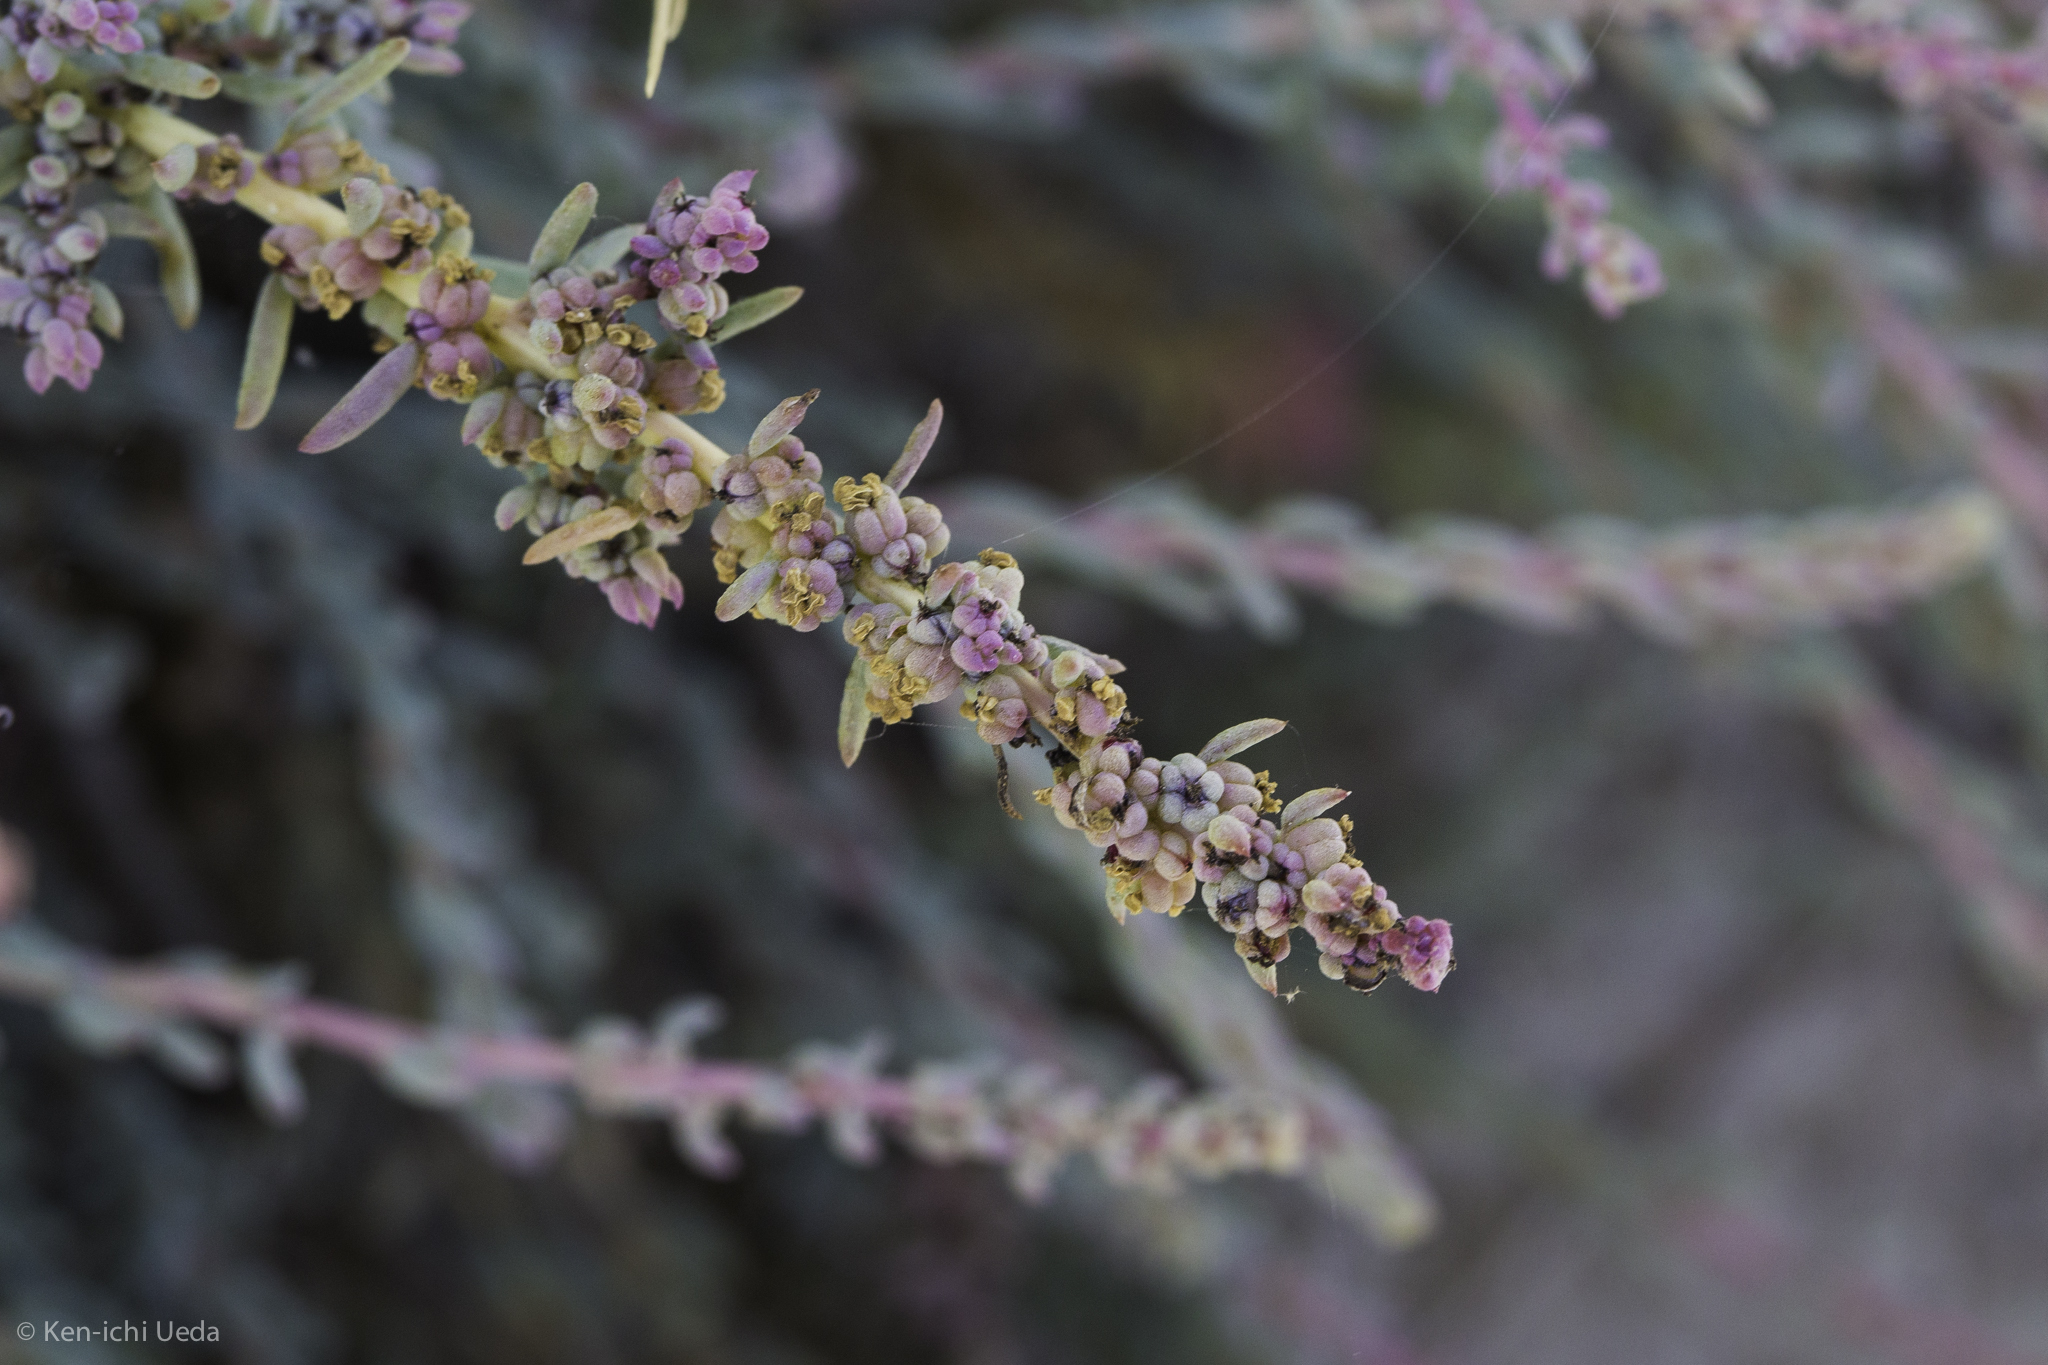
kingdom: Plantae
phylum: Tracheophyta
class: Magnoliopsida
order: Caryophyllales
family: Amaranthaceae
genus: Suaeda
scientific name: Suaeda nigra
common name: Bush seepweed
